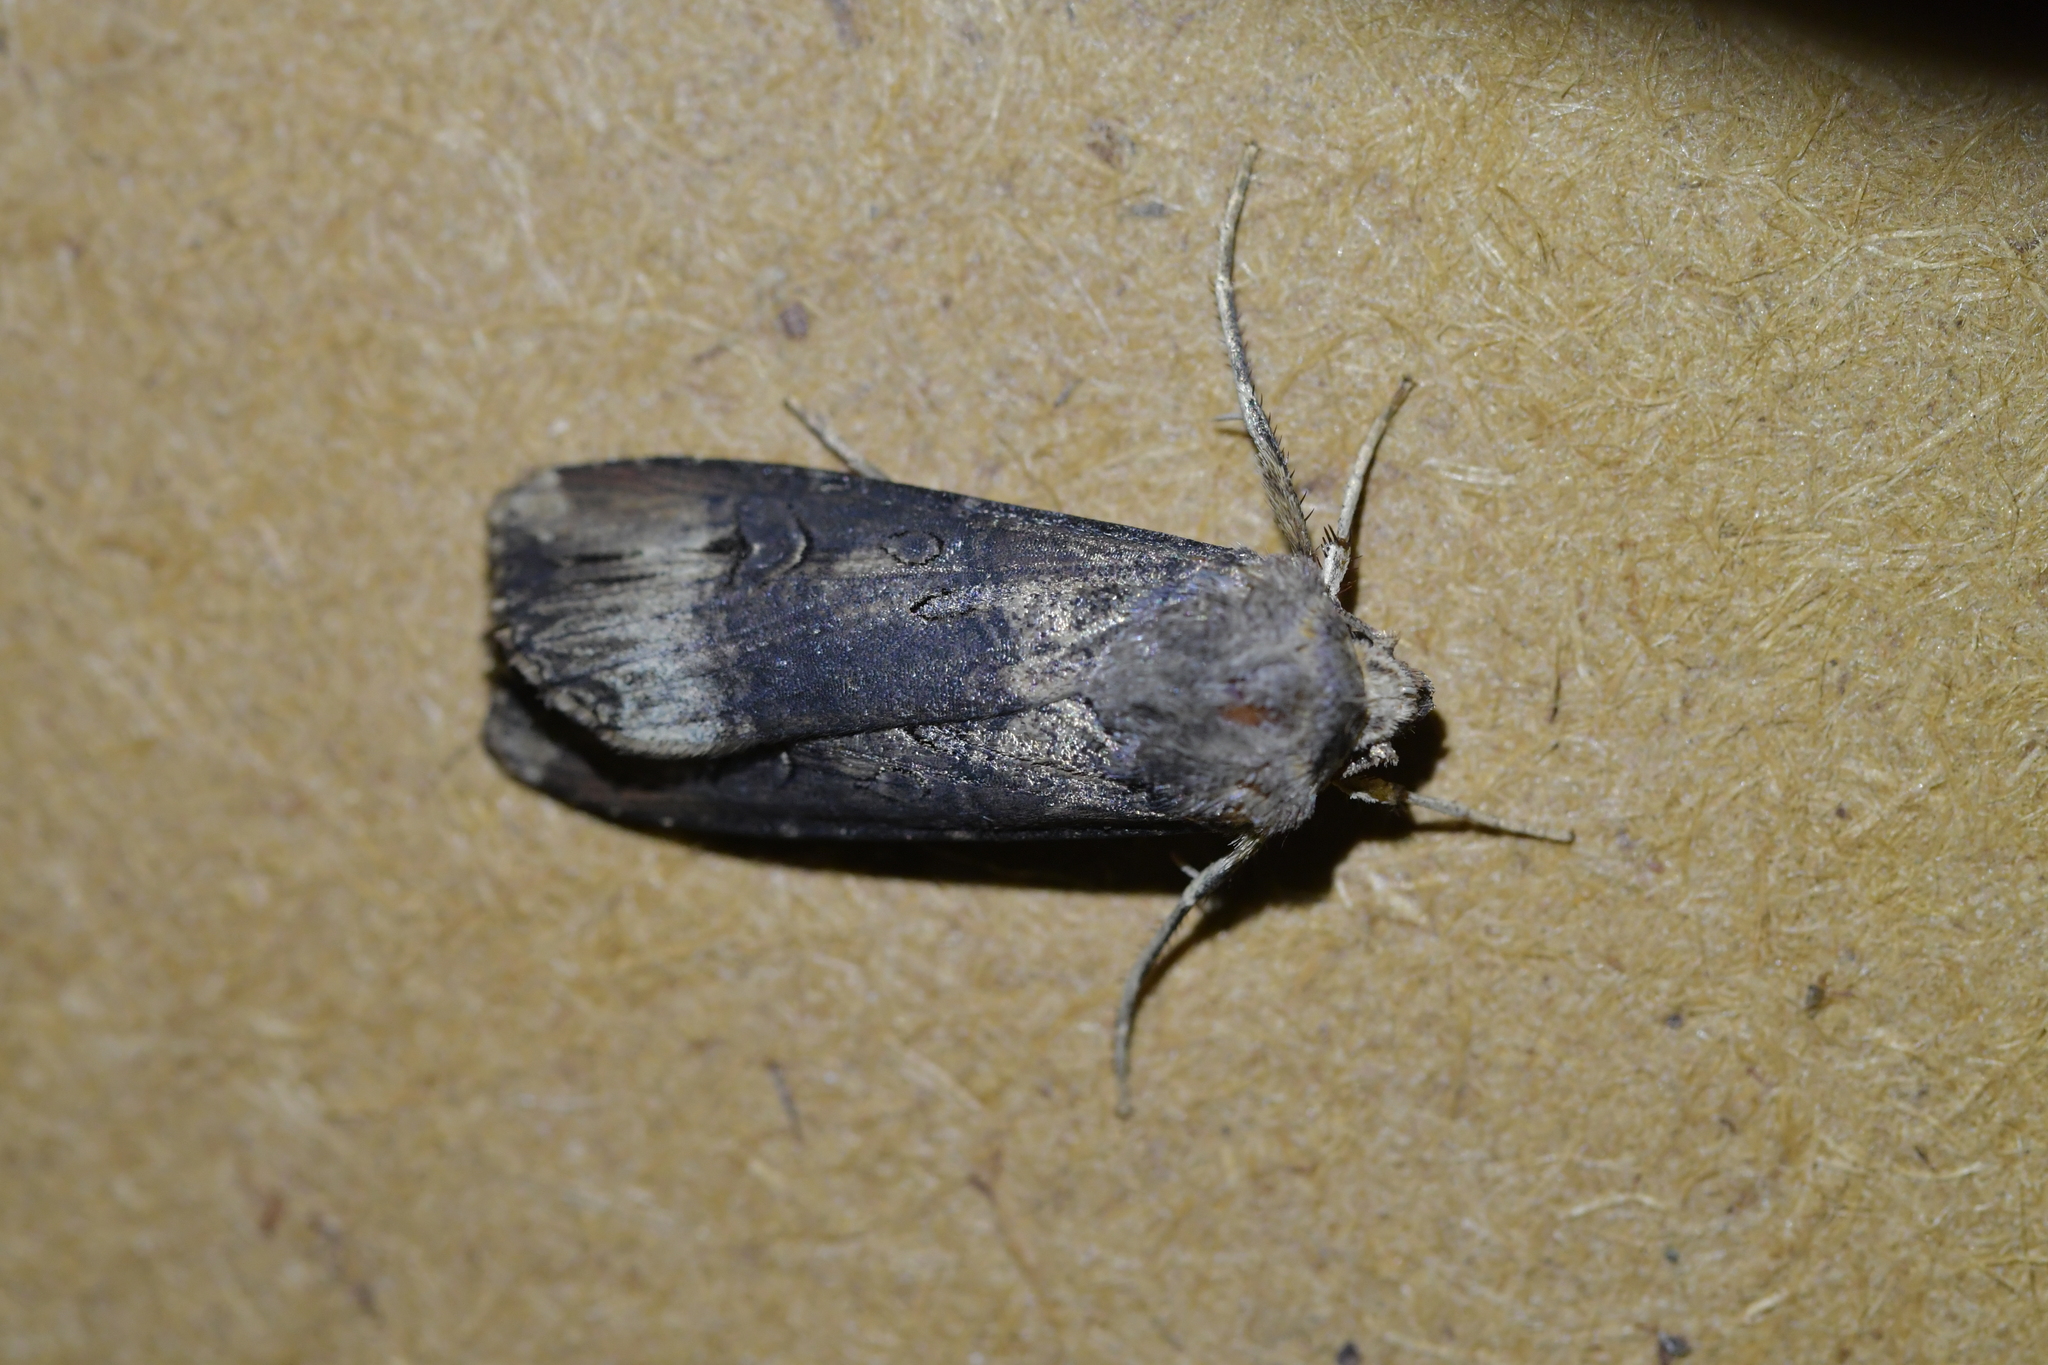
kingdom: Animalia
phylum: Arthropoda
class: Insecta
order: Lepidoptera
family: Noctuidae
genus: Agrotis
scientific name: Agrotis ipsilon
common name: Dark sword-grass
